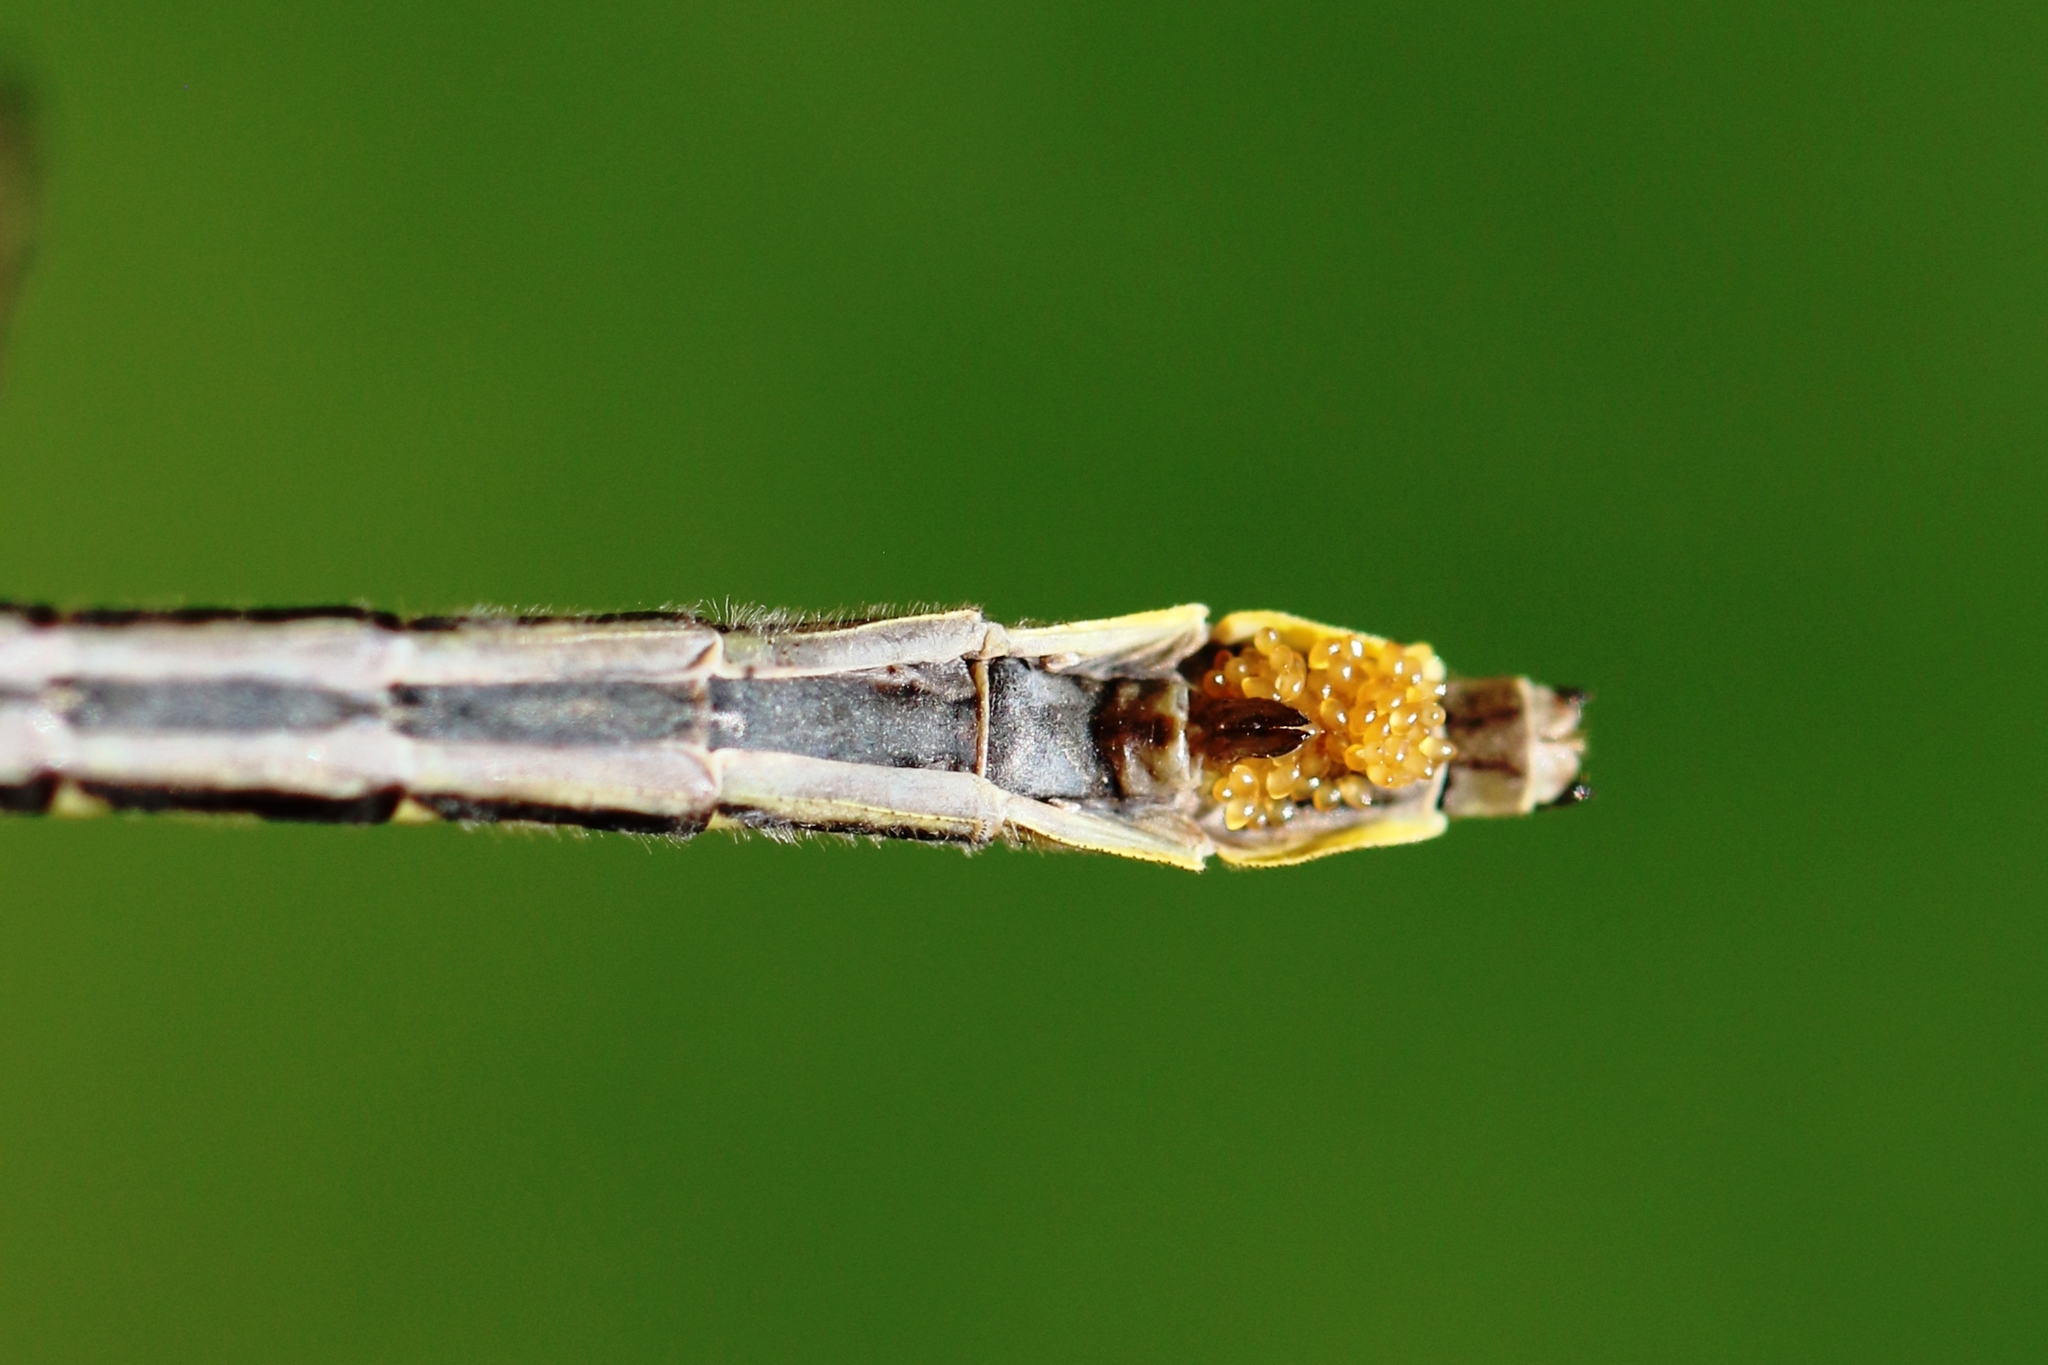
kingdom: Animalia
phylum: Arthropoda
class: Insecta
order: Odonata
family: Gomphidae
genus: Phanogomphus
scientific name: Phanogomphus descriptus
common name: Harpoon clubtail
